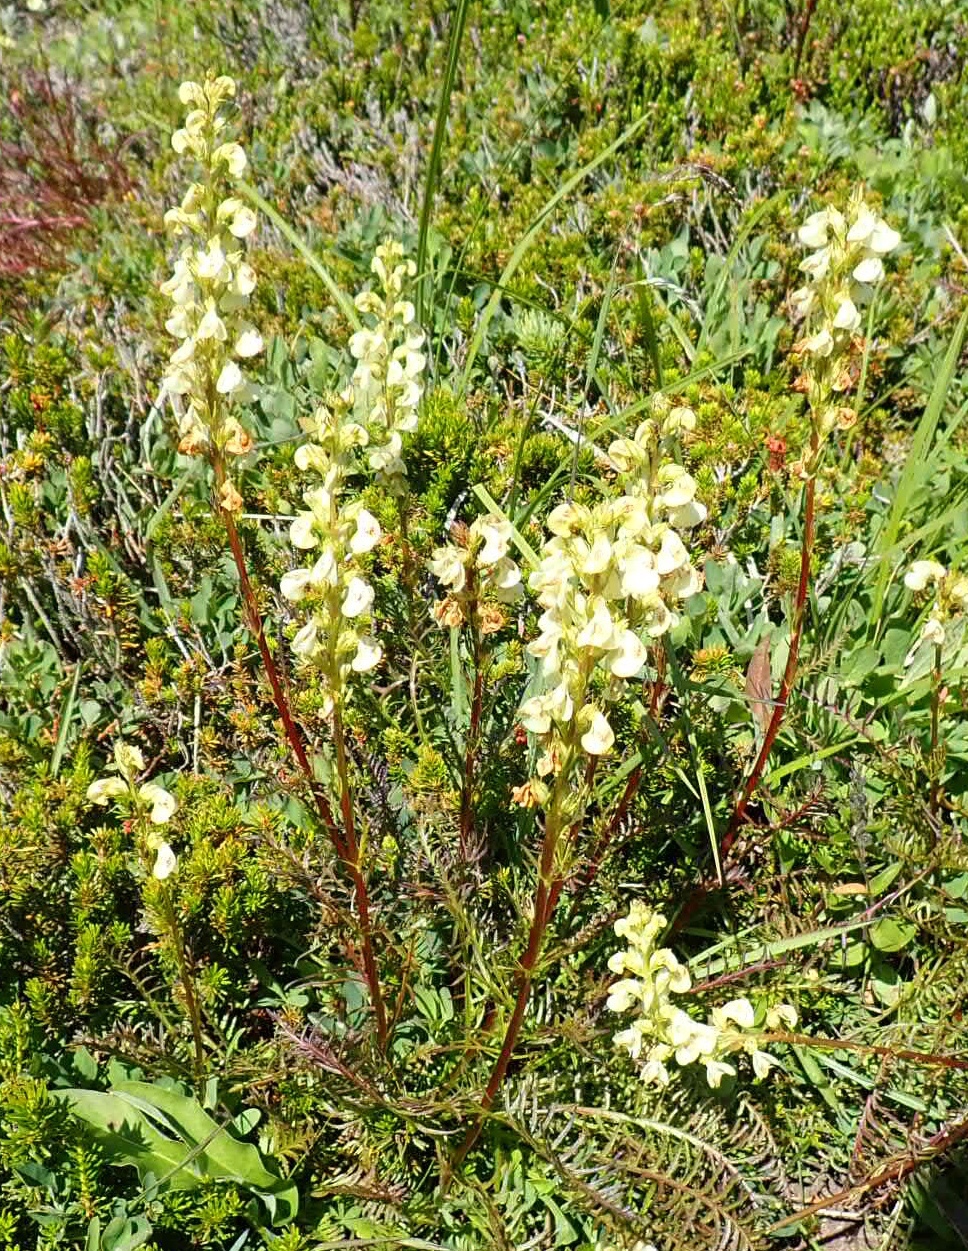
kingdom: Plantae
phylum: Tracheophyta
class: Magnoliopsida
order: Lamiales
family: Orobanchaceae
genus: Pedicularis
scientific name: Pedicularis contorta
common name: Coiled lousewort
